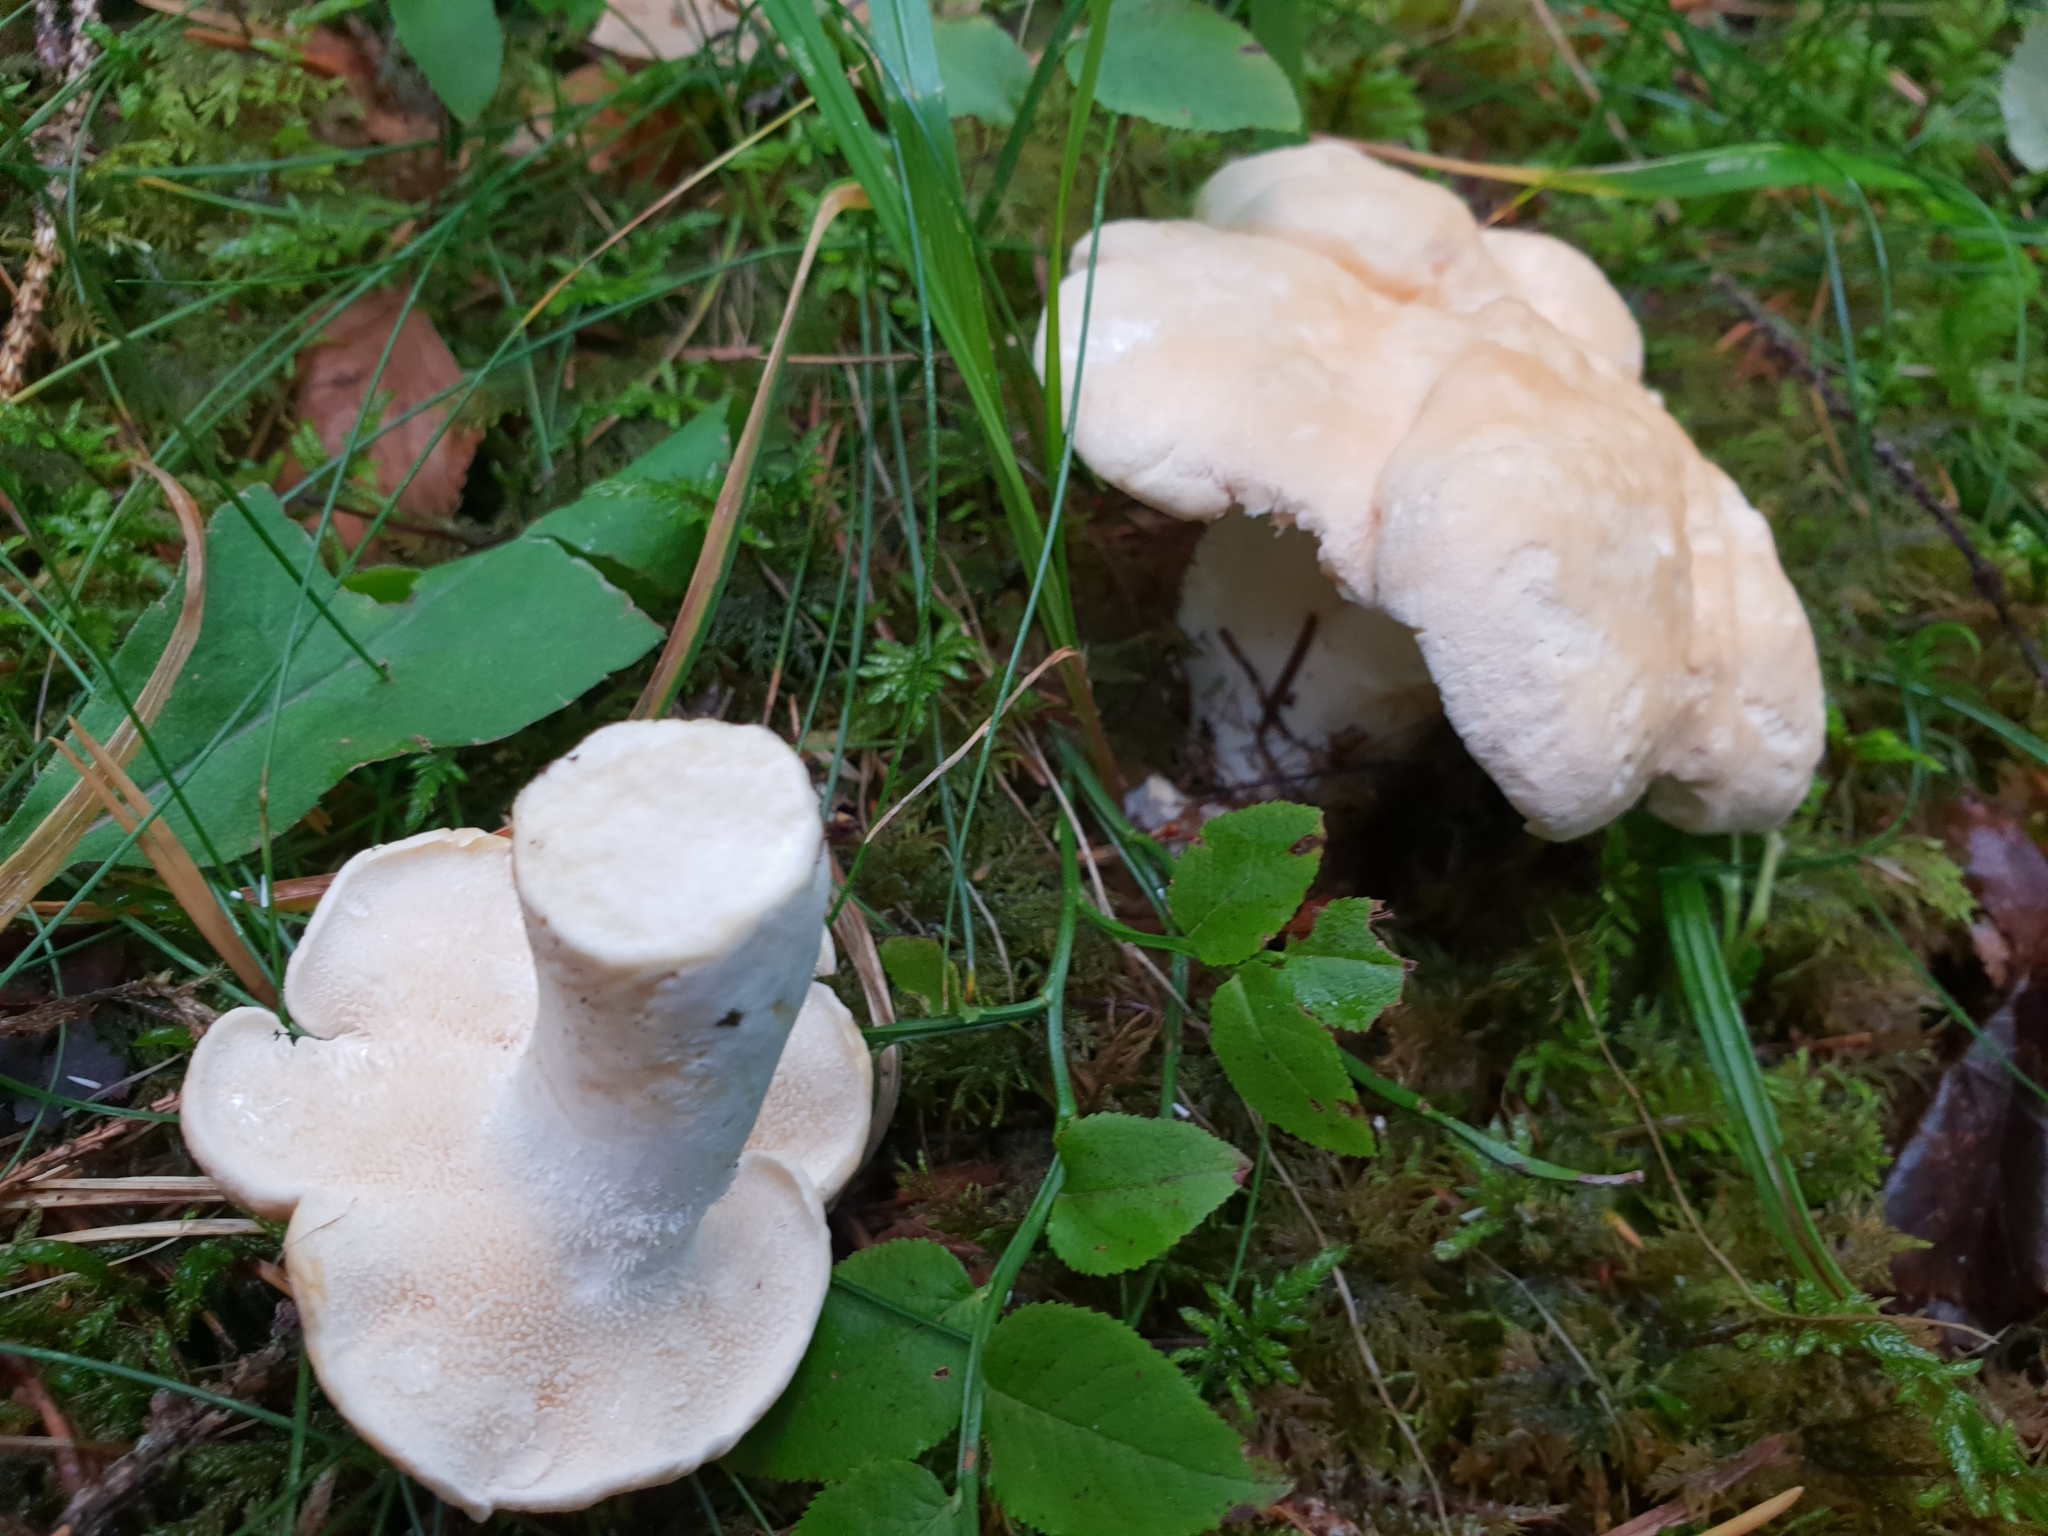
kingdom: Fungi
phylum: Basidiomycota
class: Agaricomycetes
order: Cantharellales
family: Hydnaceae
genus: Hydnum
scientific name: Hydnum repandum
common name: Wood hedgehog
